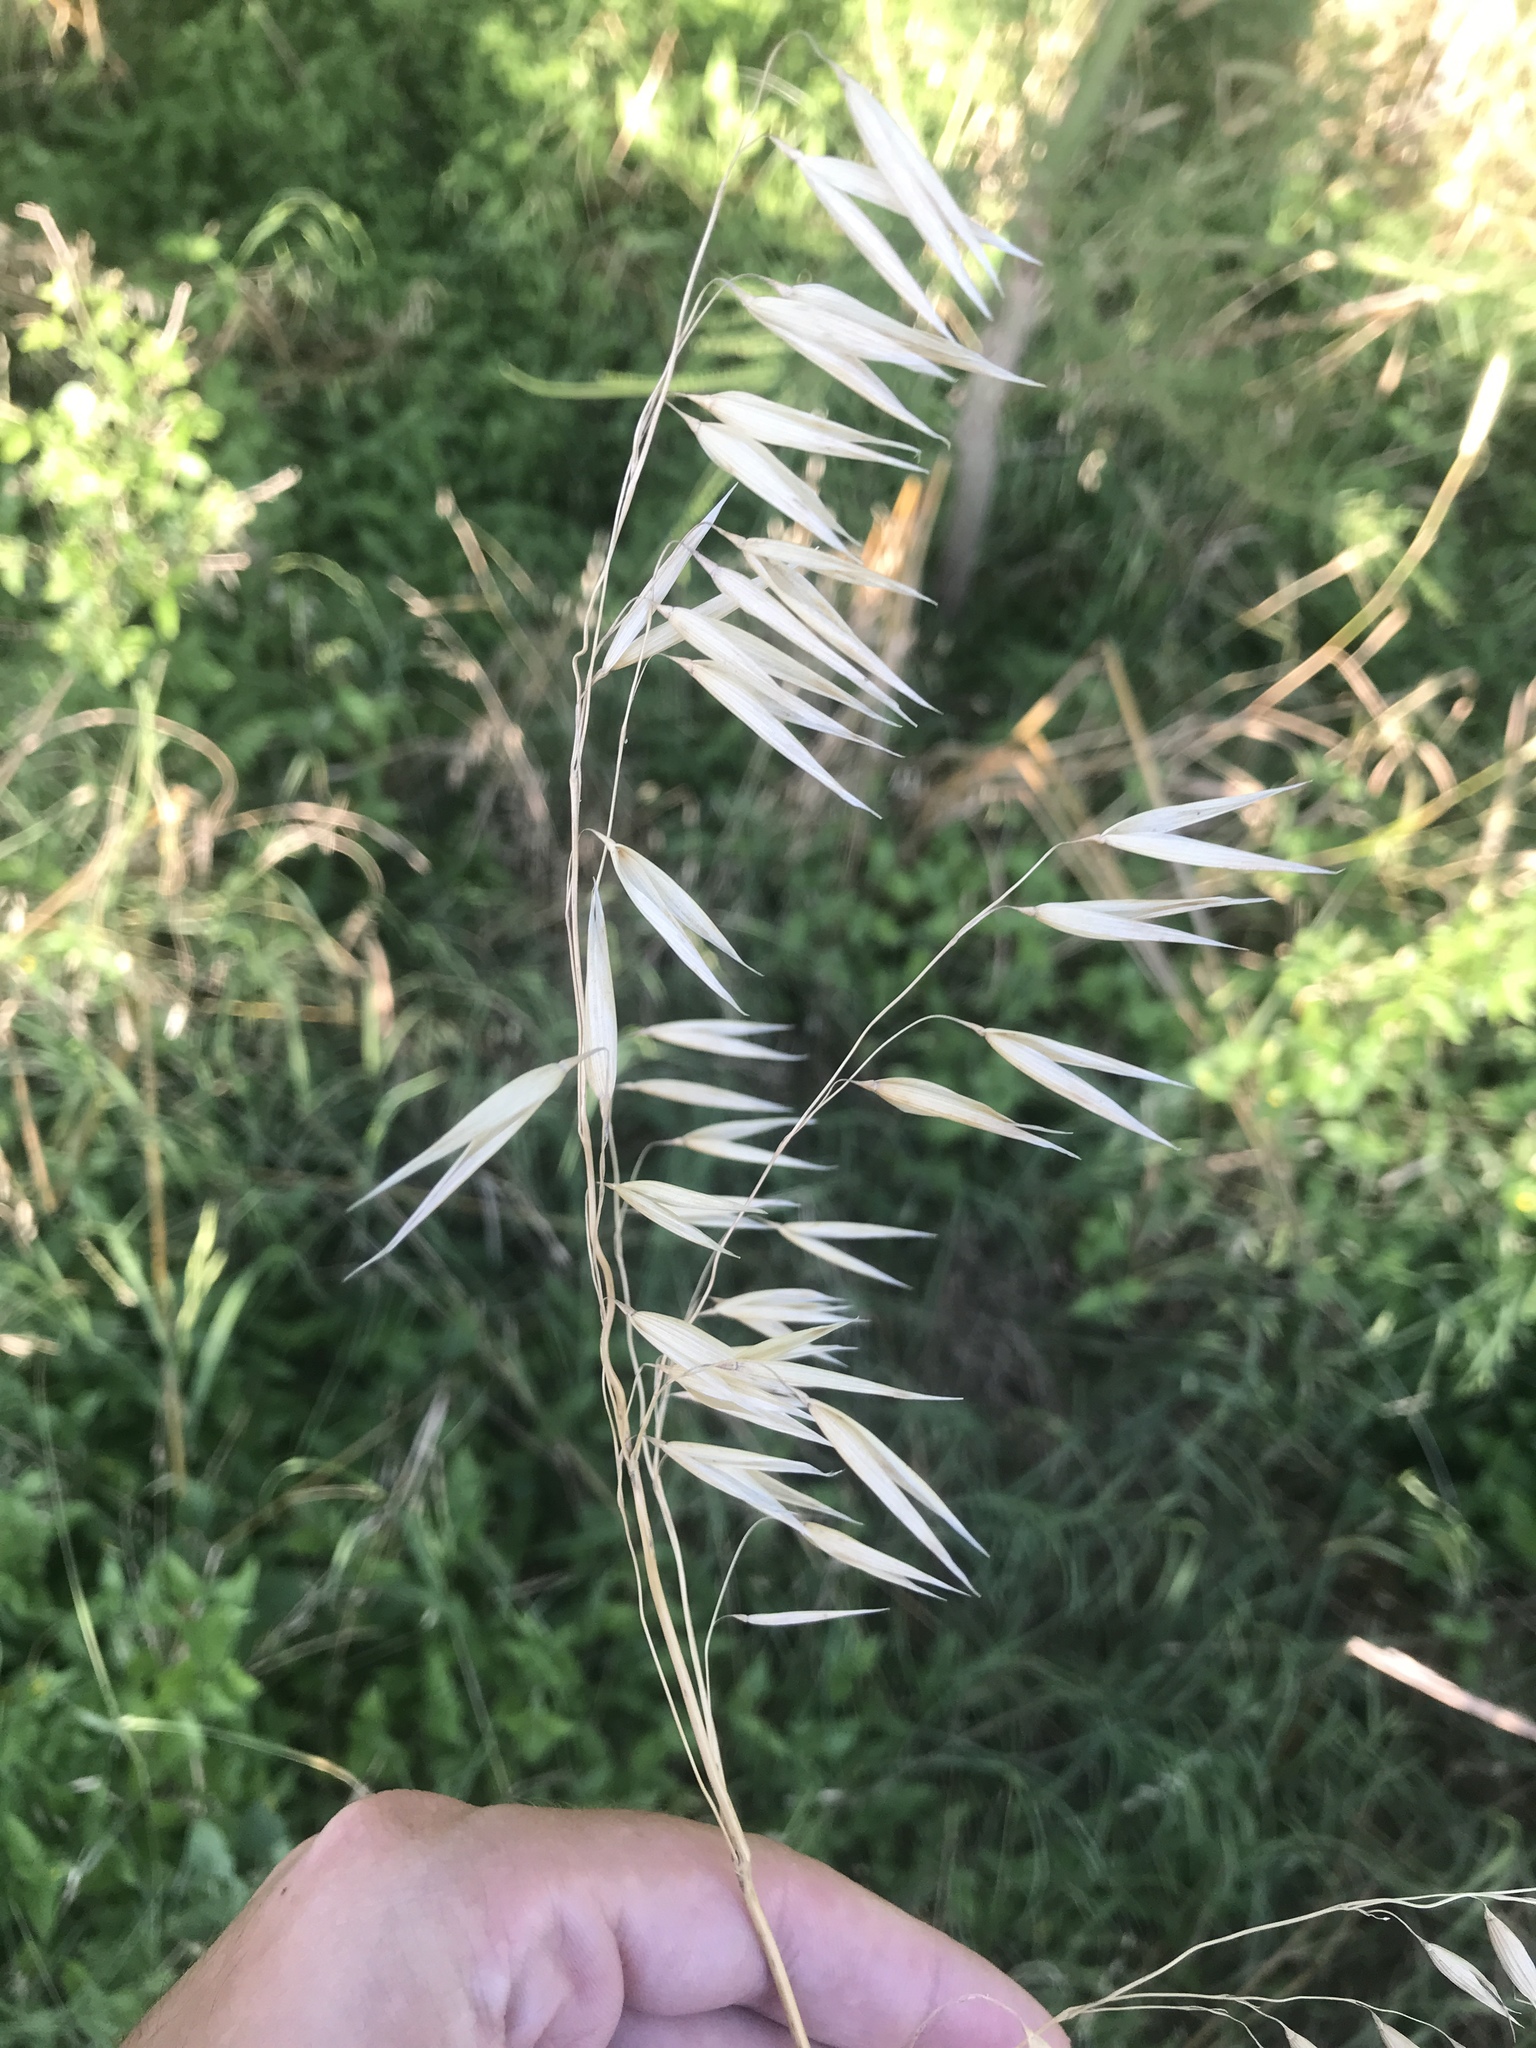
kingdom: Plantae
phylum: Tracheophyta
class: Liliopsida
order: Poales
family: Poaceae
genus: Avena
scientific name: Avena fatua
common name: Wild oat
